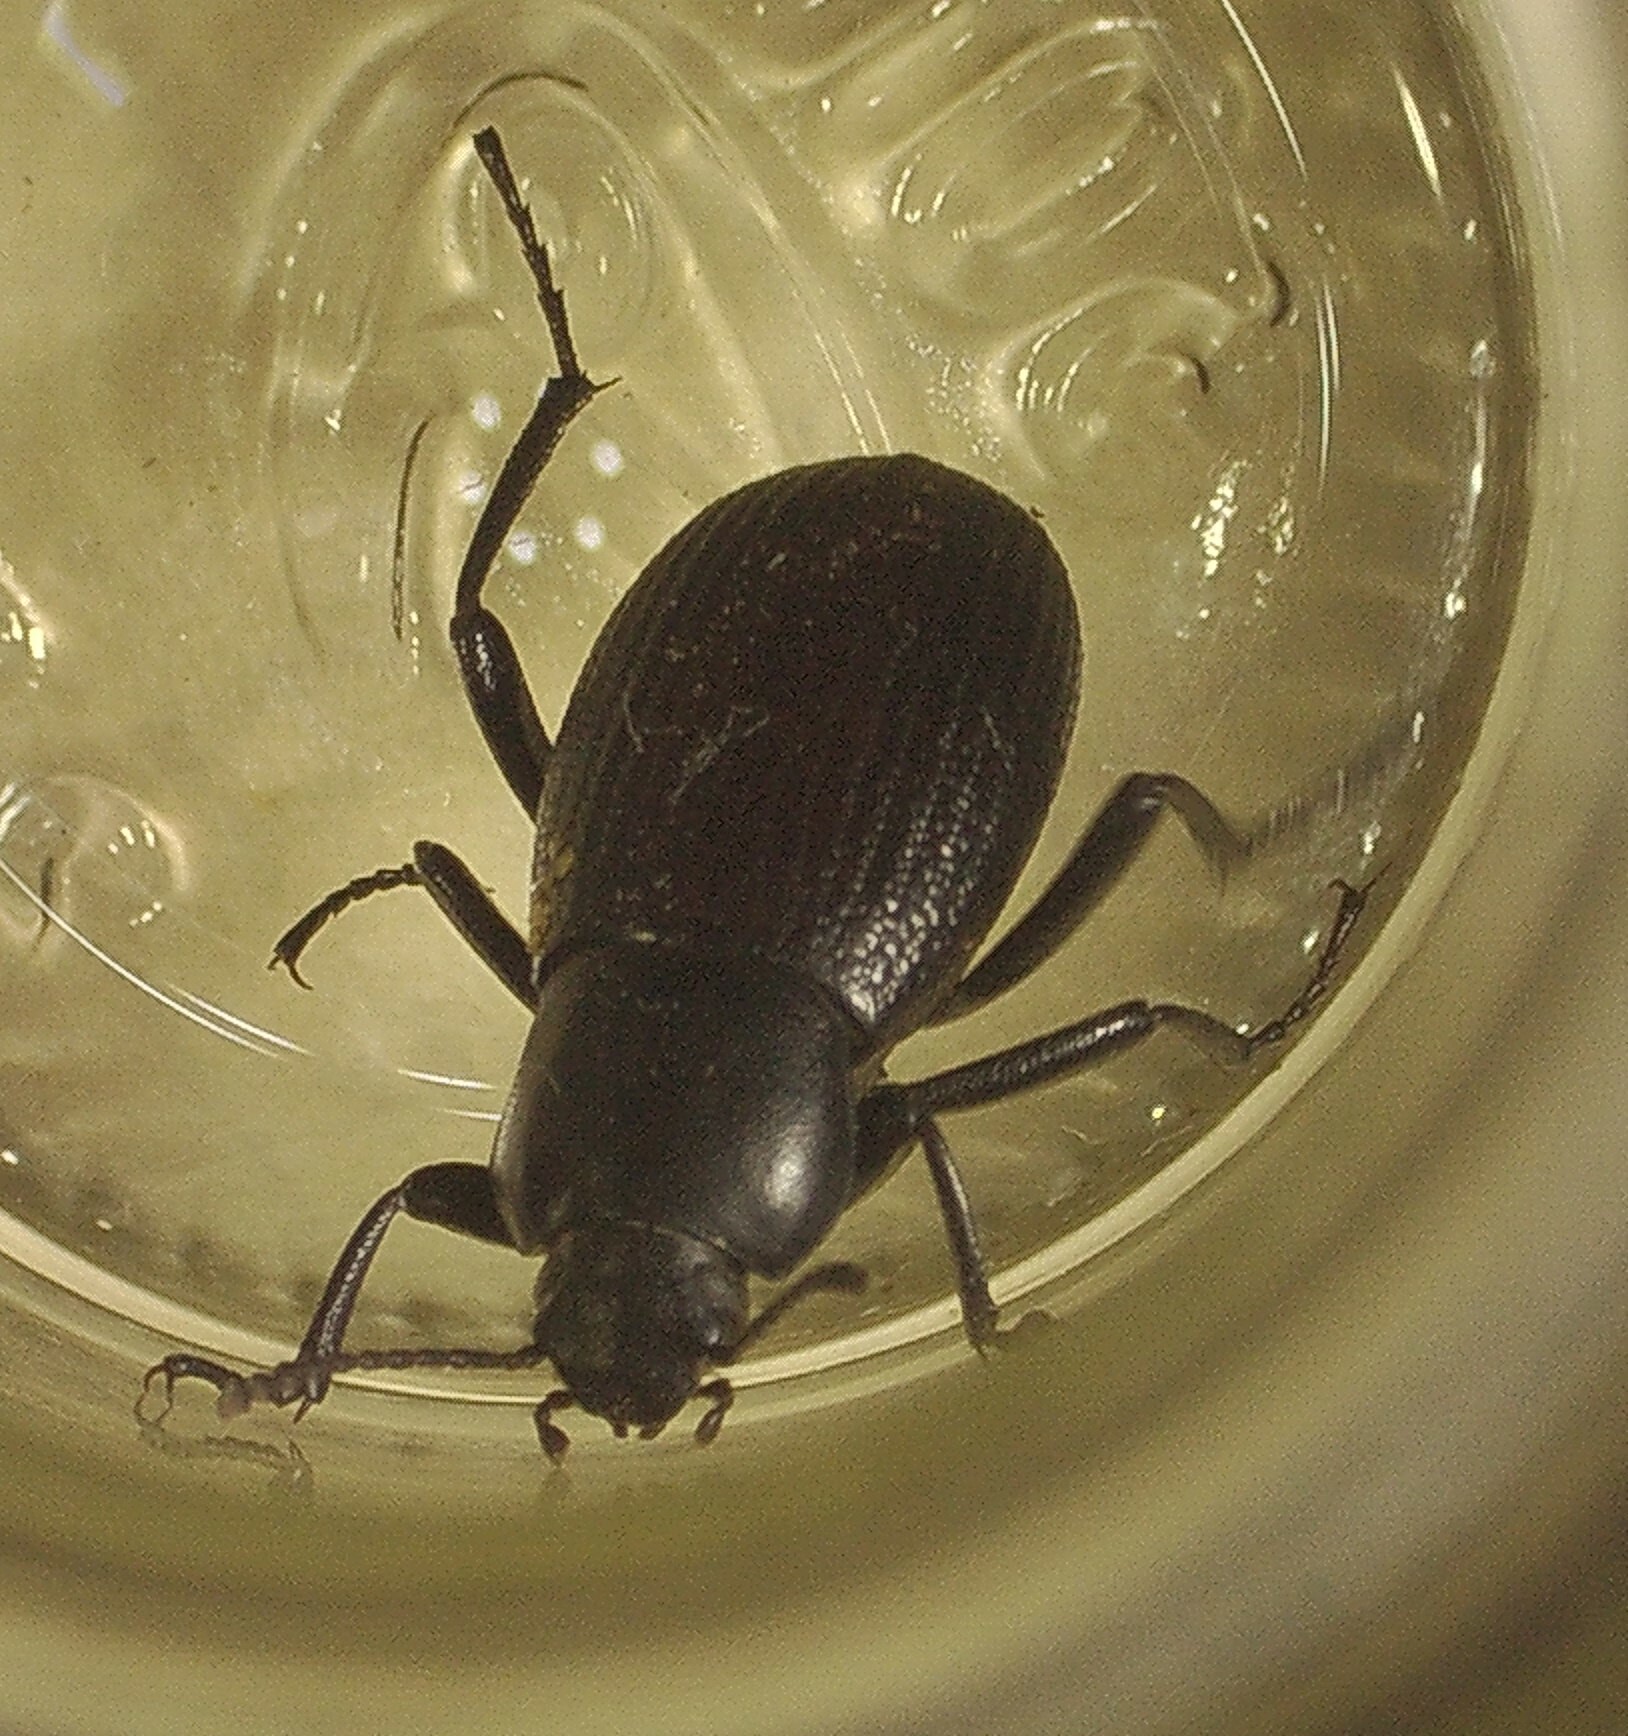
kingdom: Animalia
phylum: Arthropoda
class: Insecta
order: Coleoptera
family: Tenebrionidae
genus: Eleodes
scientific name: Eleodes carbonaria
